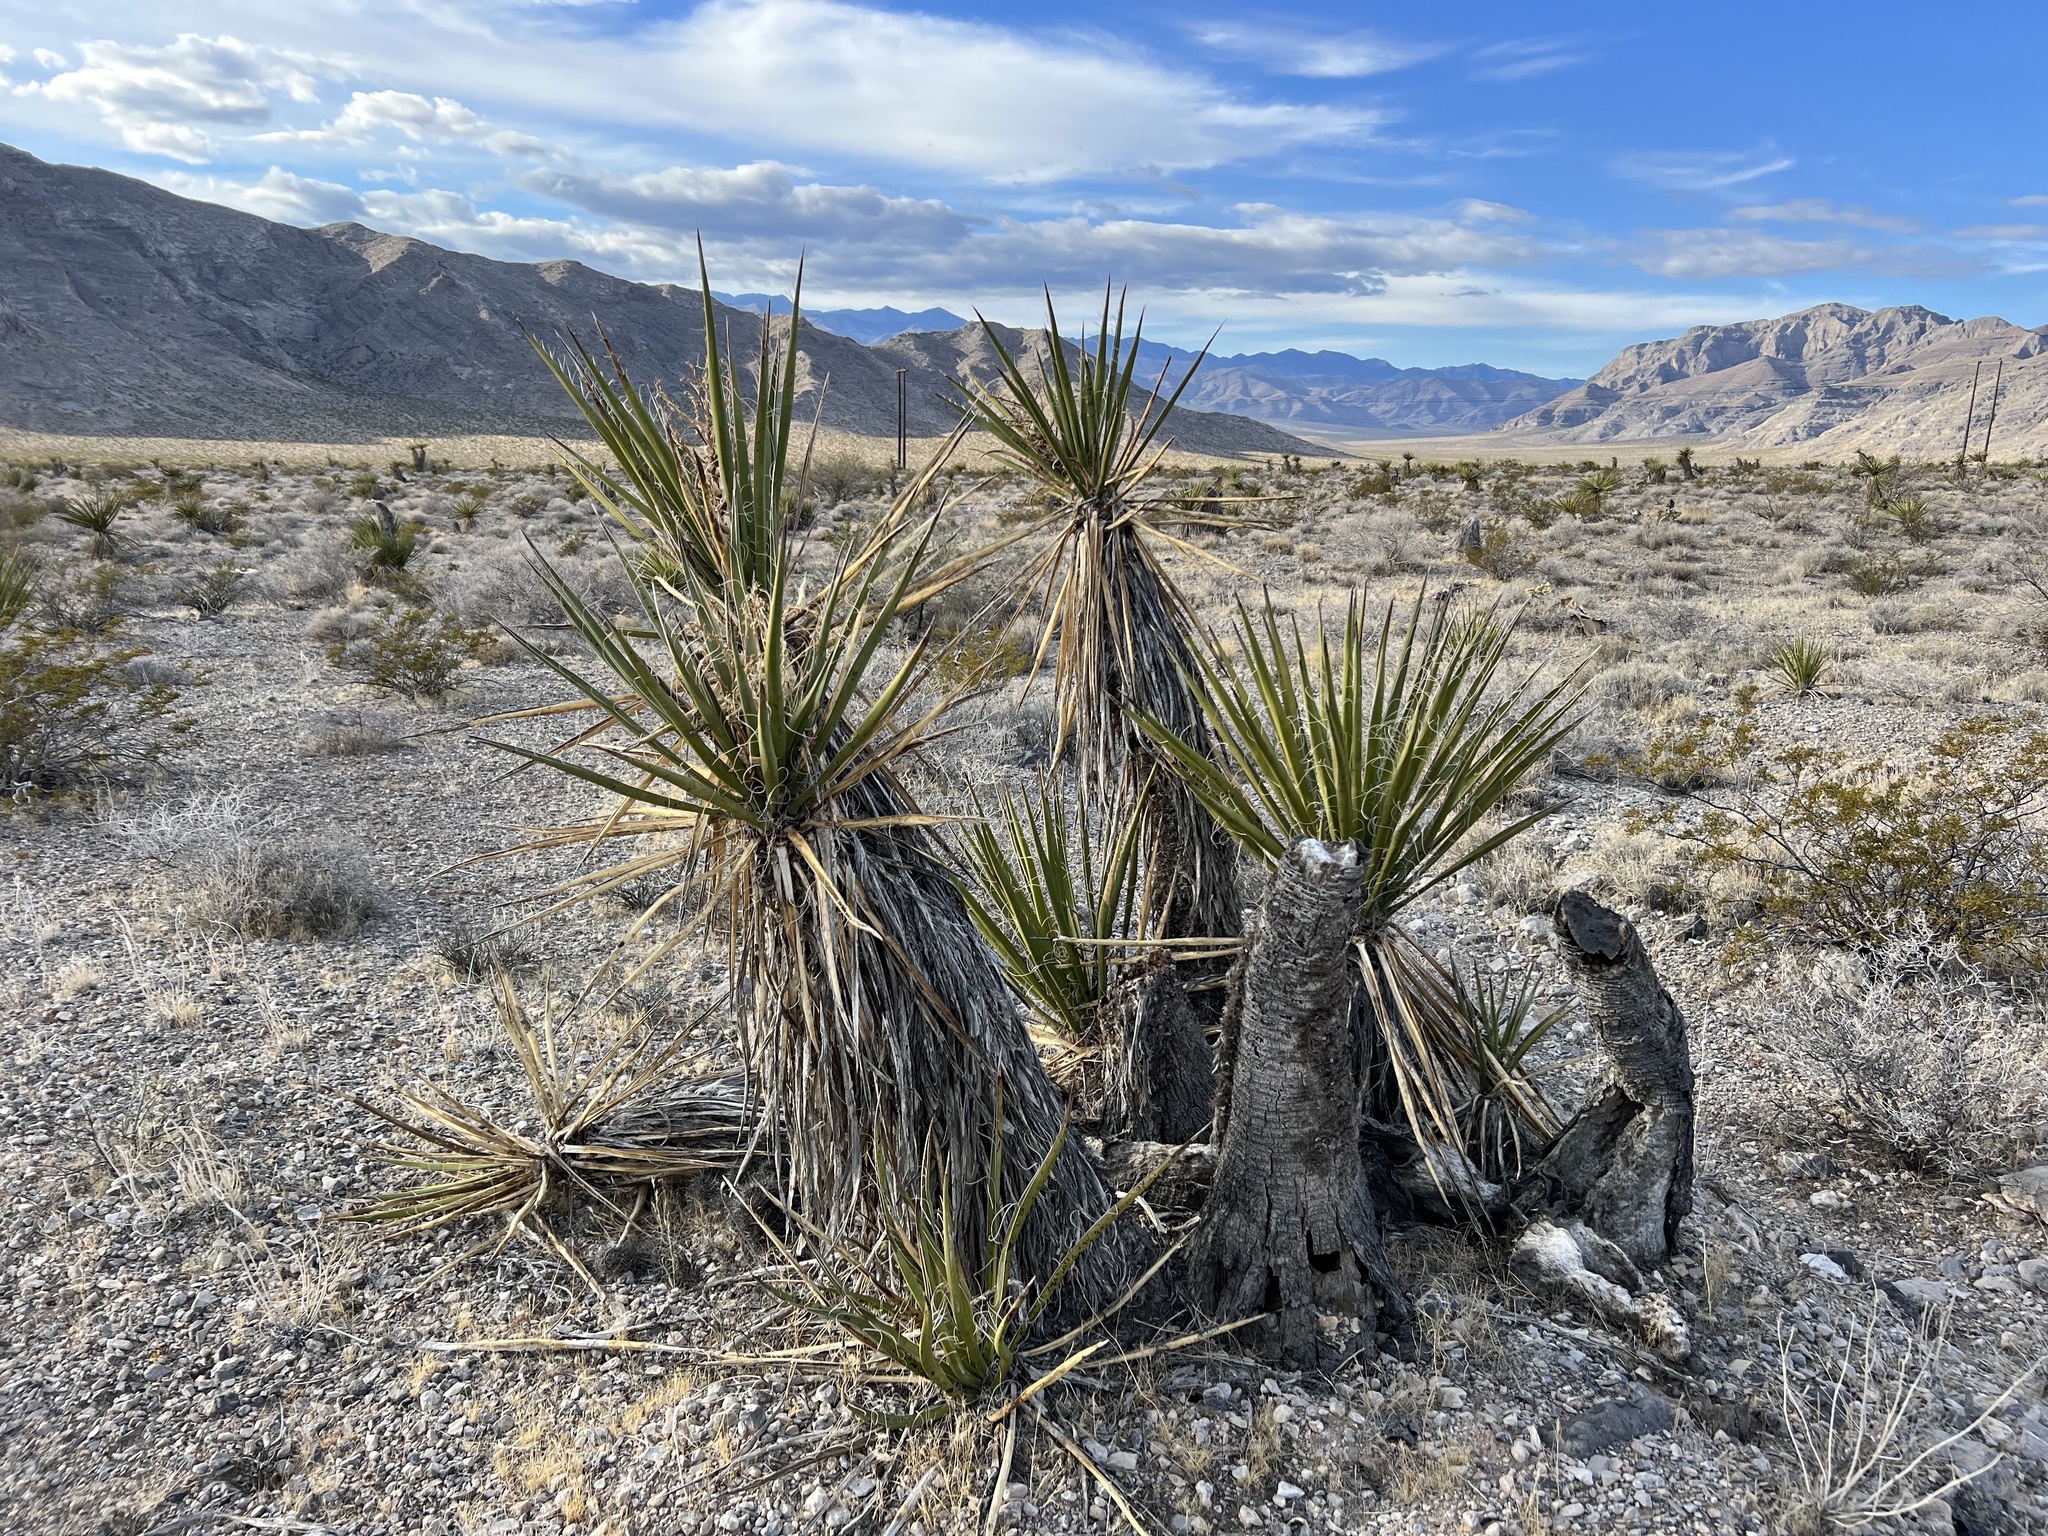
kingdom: Plantae
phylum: Tracheophyta
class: Liliopsida
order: Asparagales
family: Asparagaceae
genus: Yucca
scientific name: Yucca schidigera
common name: Mojave yucca
